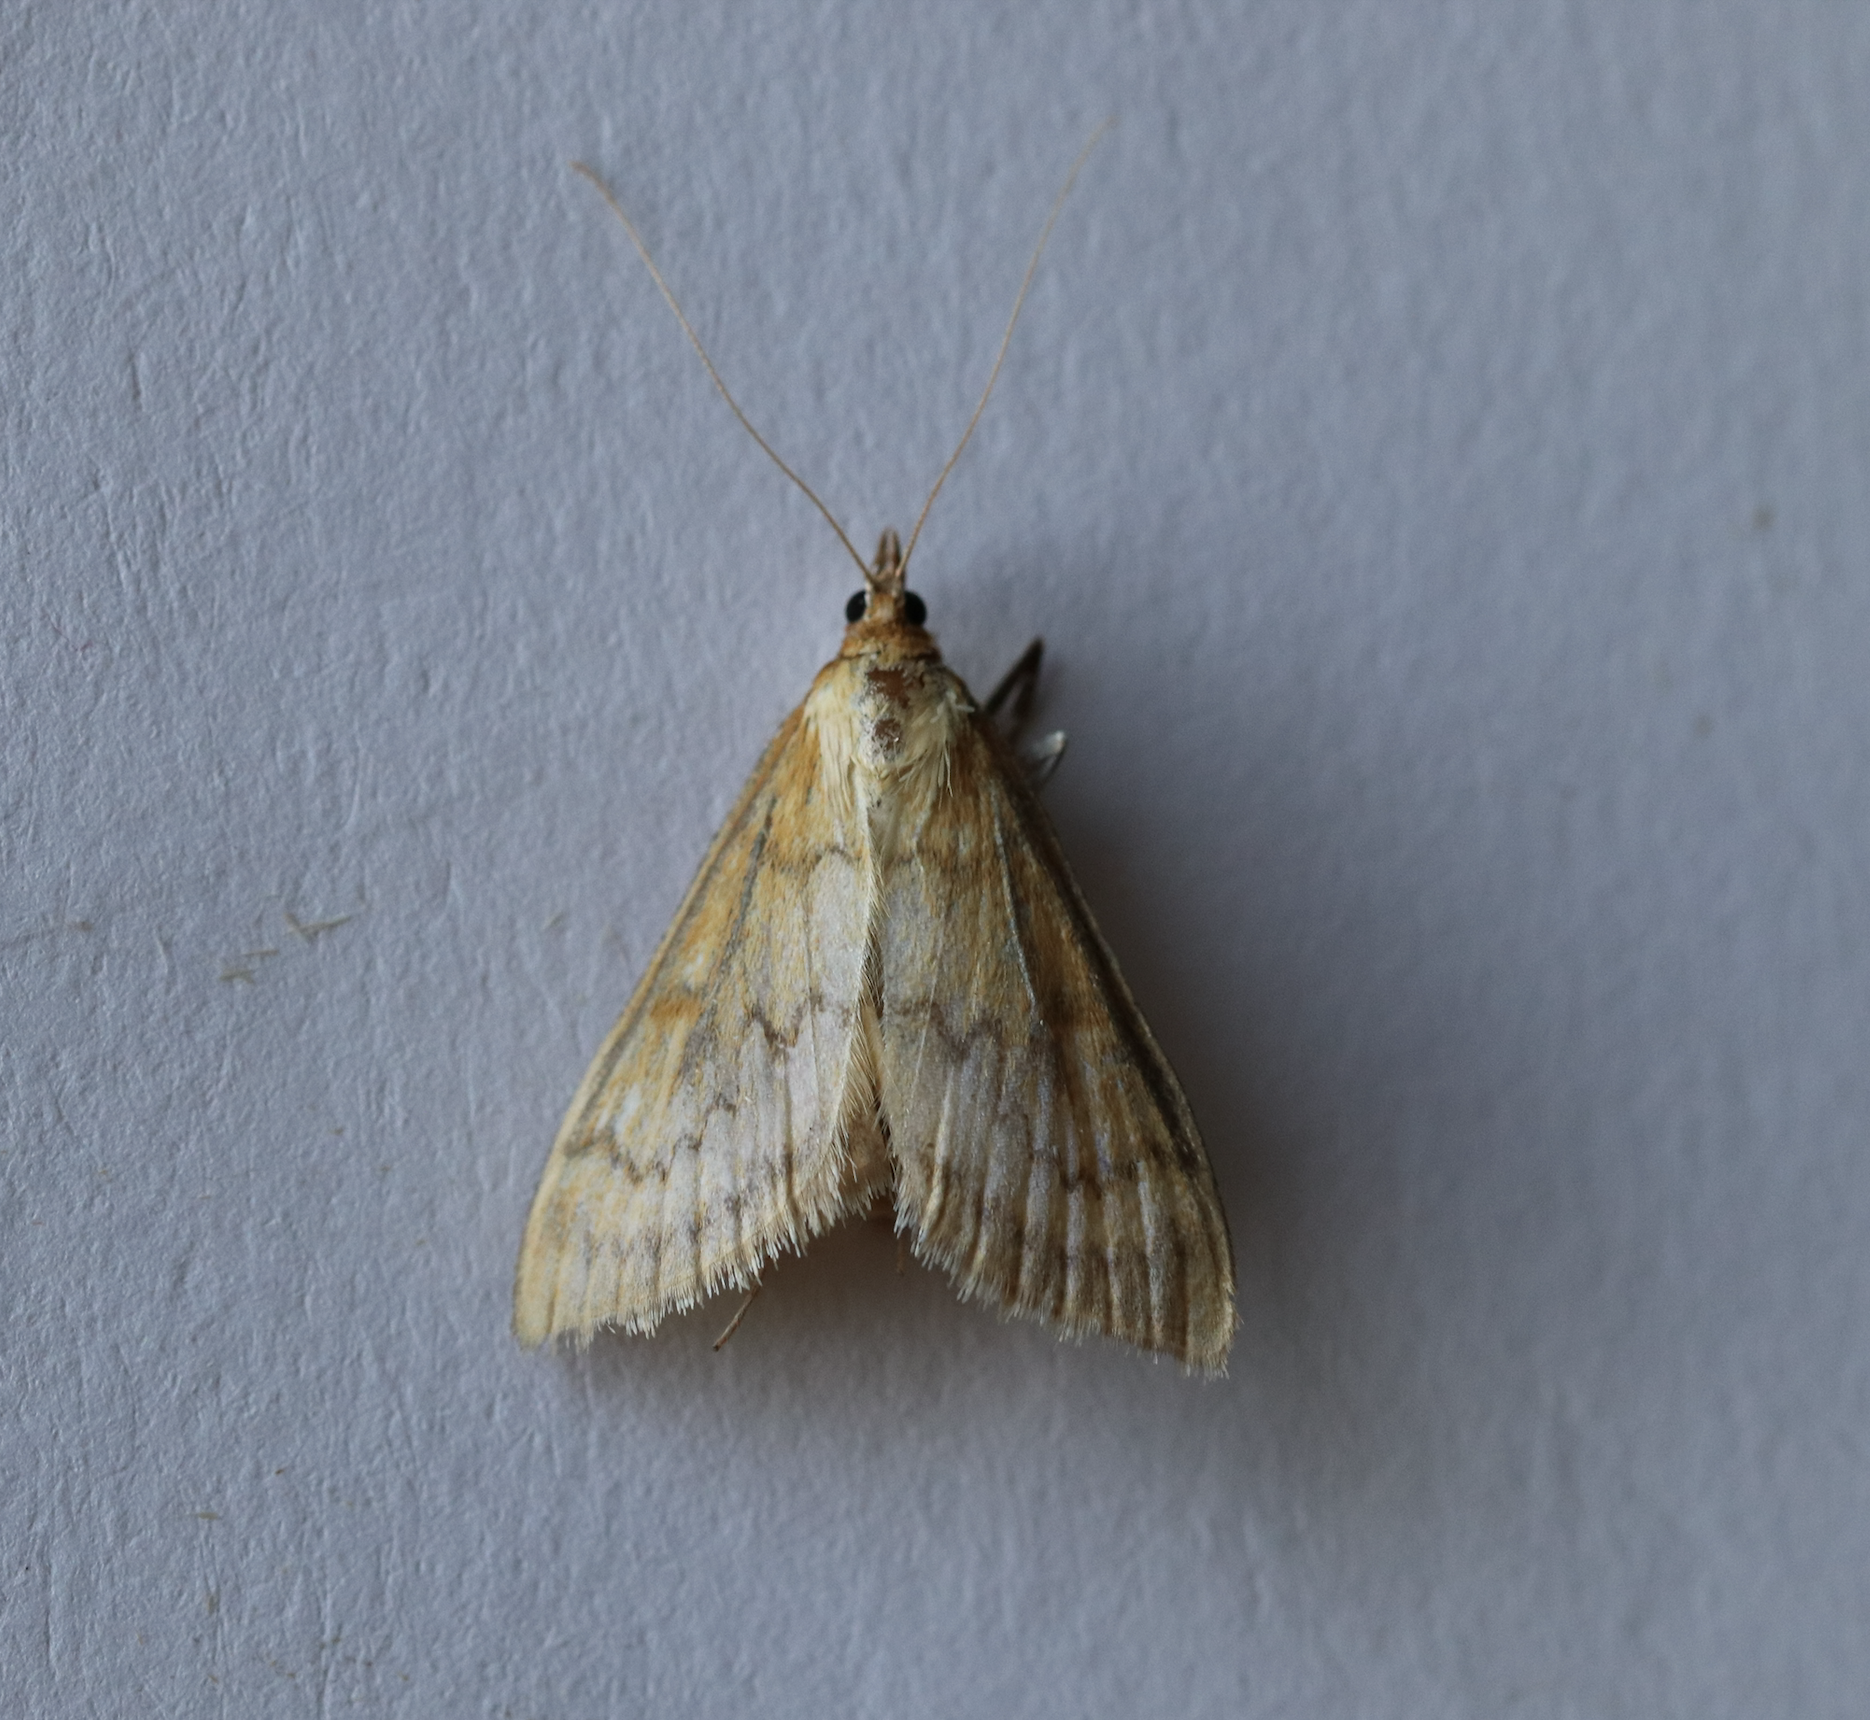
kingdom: Animalia
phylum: Arthropoda
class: Insecta
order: Lepidoptera
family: Crambidae
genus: Ostrinia
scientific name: Ostrinia nubilalis
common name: European corn borer
